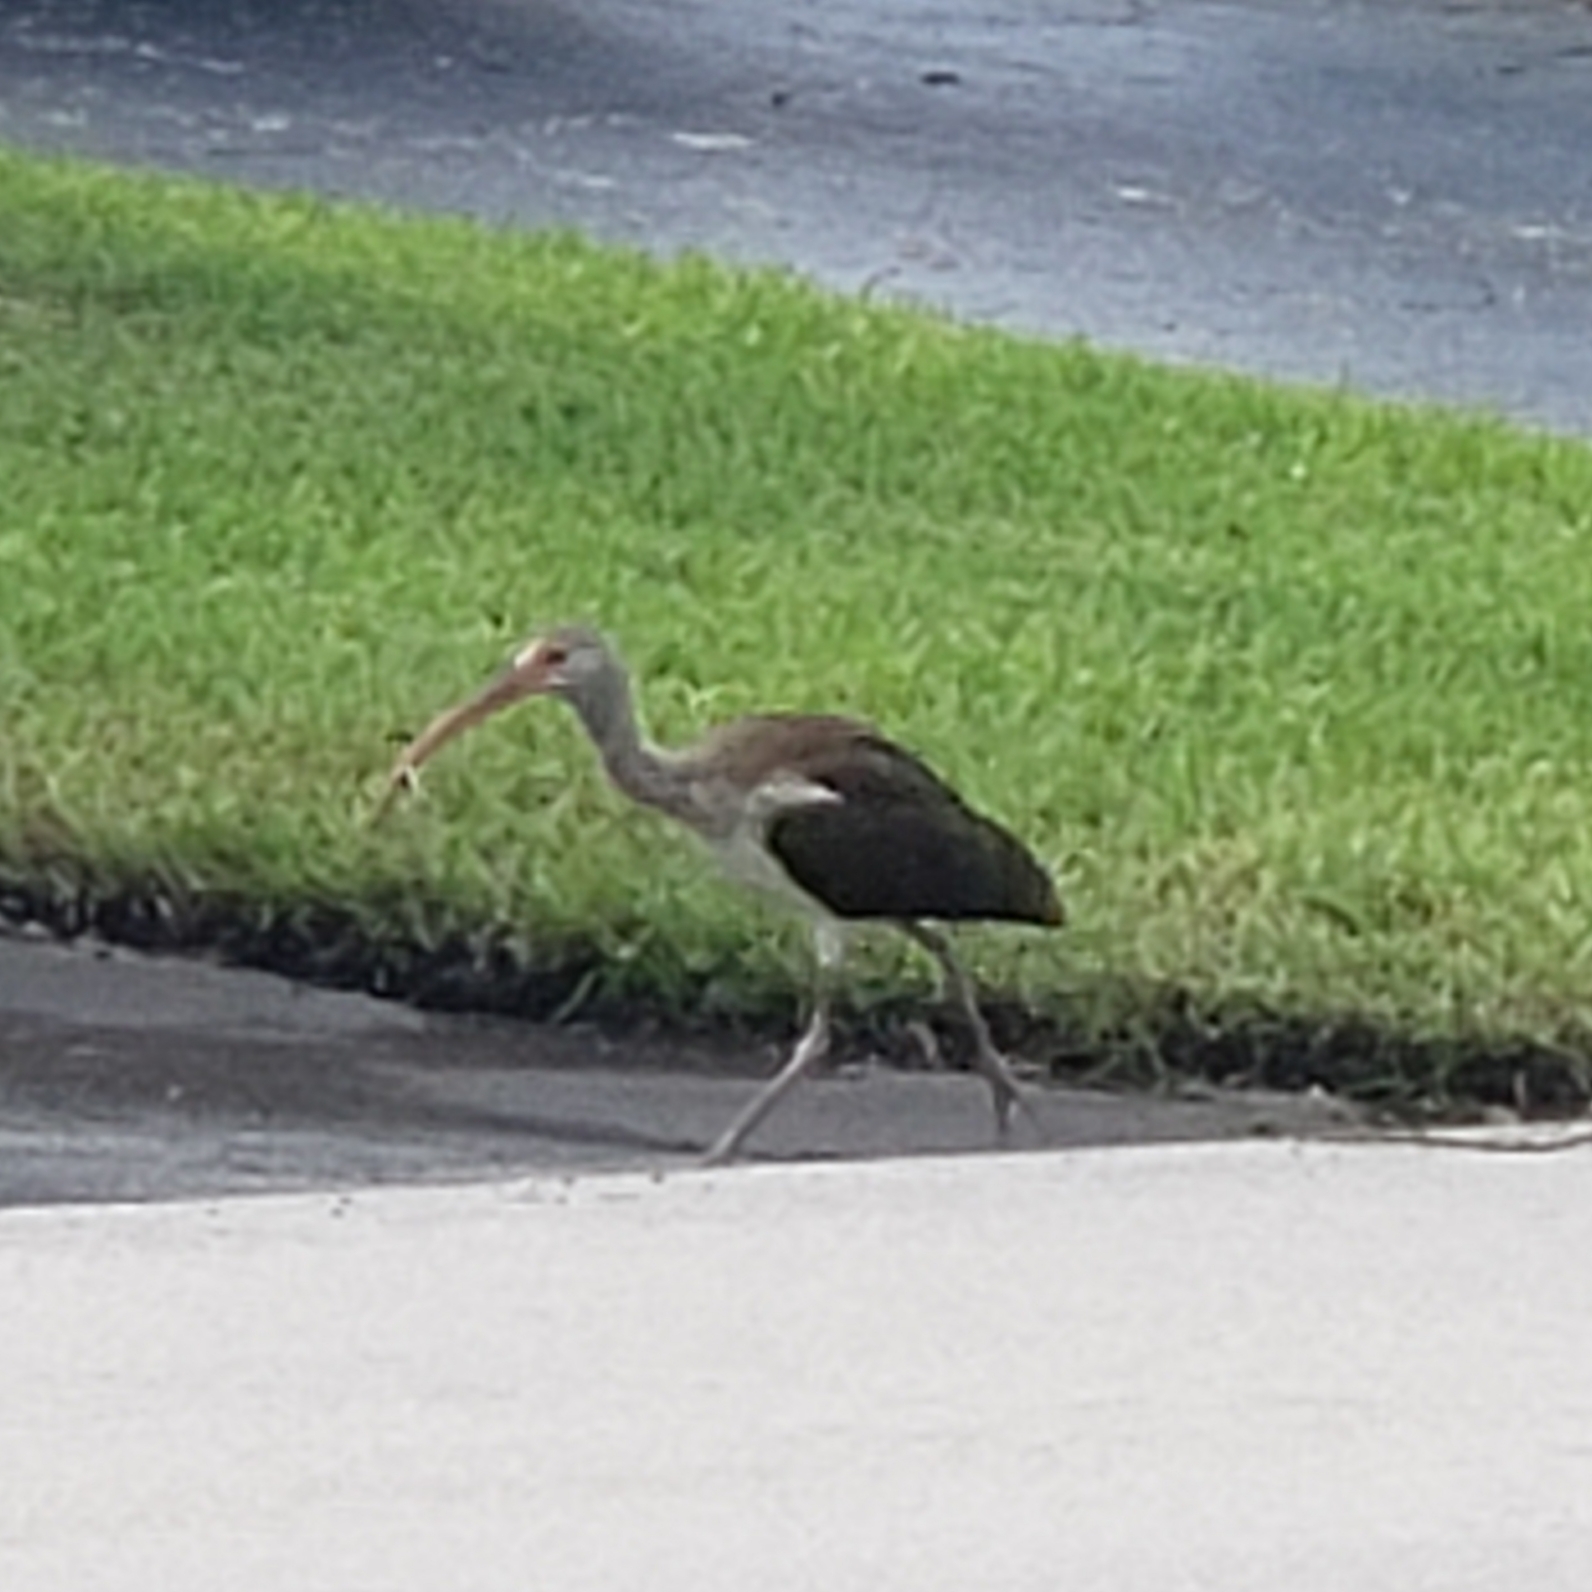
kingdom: Animalia
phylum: Chordata
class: Aves
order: Pelecaniformes
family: Threskiornithidae
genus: Eudocimus
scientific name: Eudocimus albus
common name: White ibis
